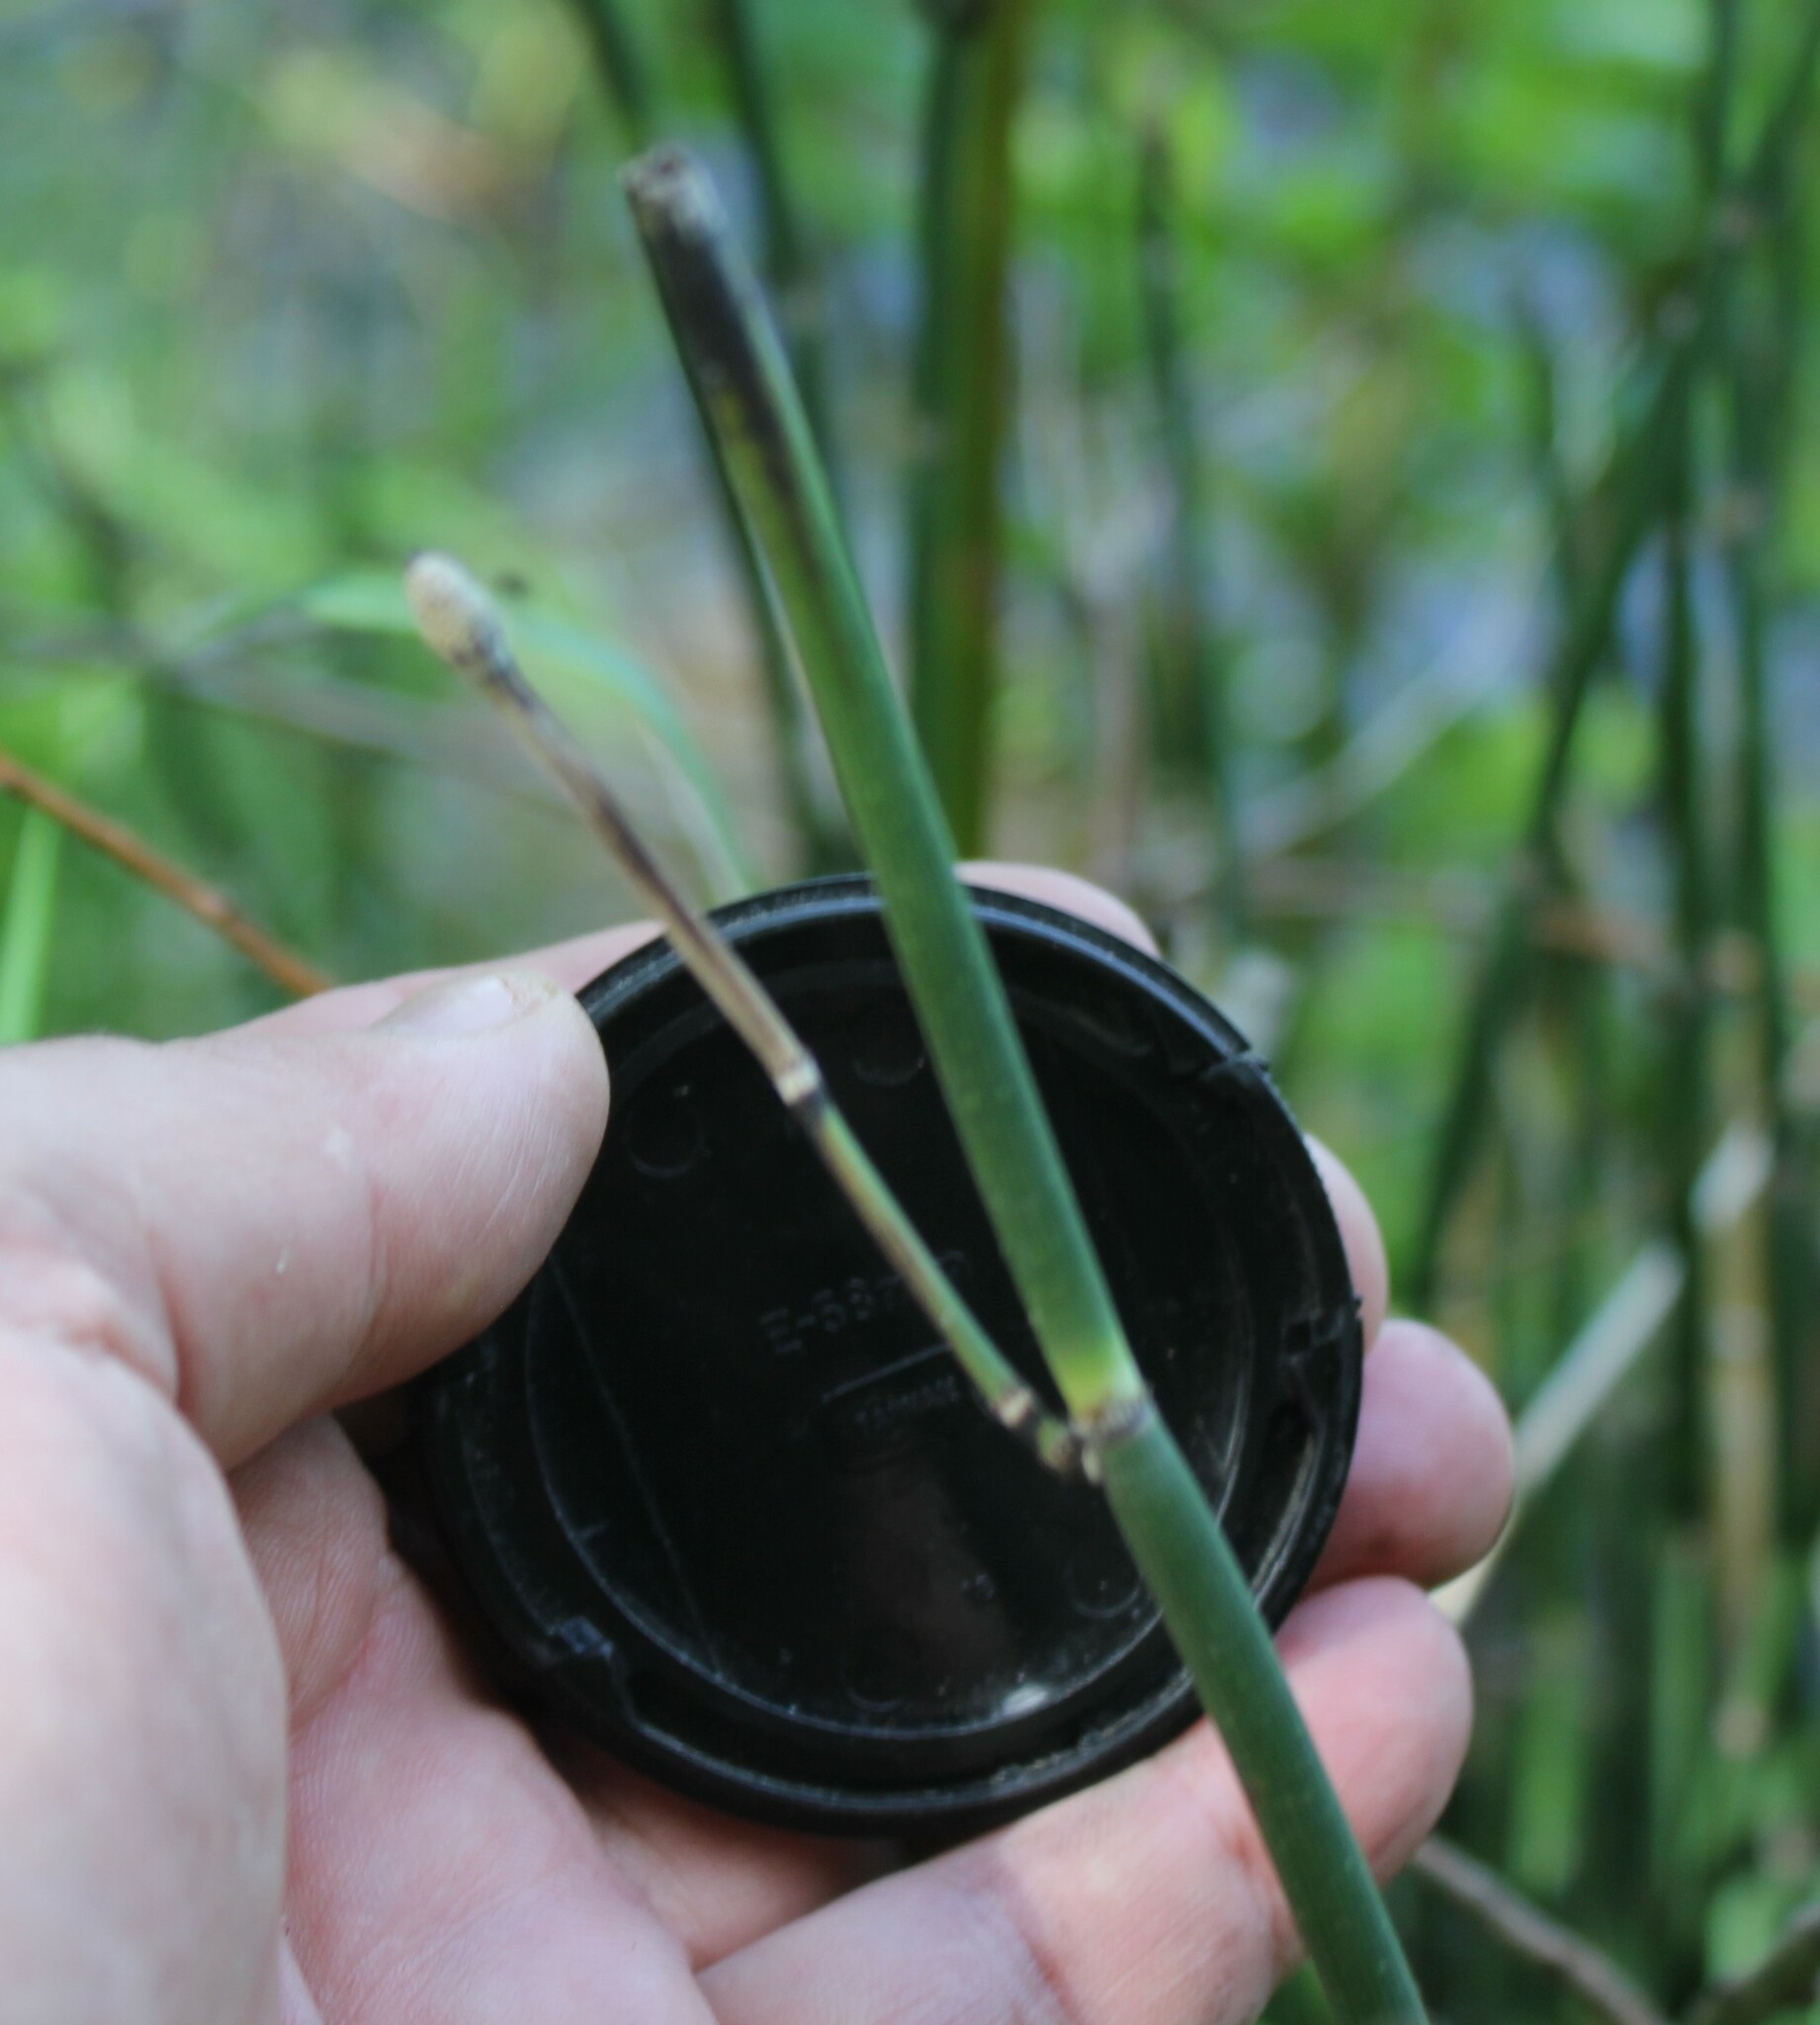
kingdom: Plantae
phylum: Tracheophyta
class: Polypodiopsida
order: Equisetales
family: Equisetaceae
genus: Equisetum
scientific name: Equisetum hyemale
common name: Rough horsetail
